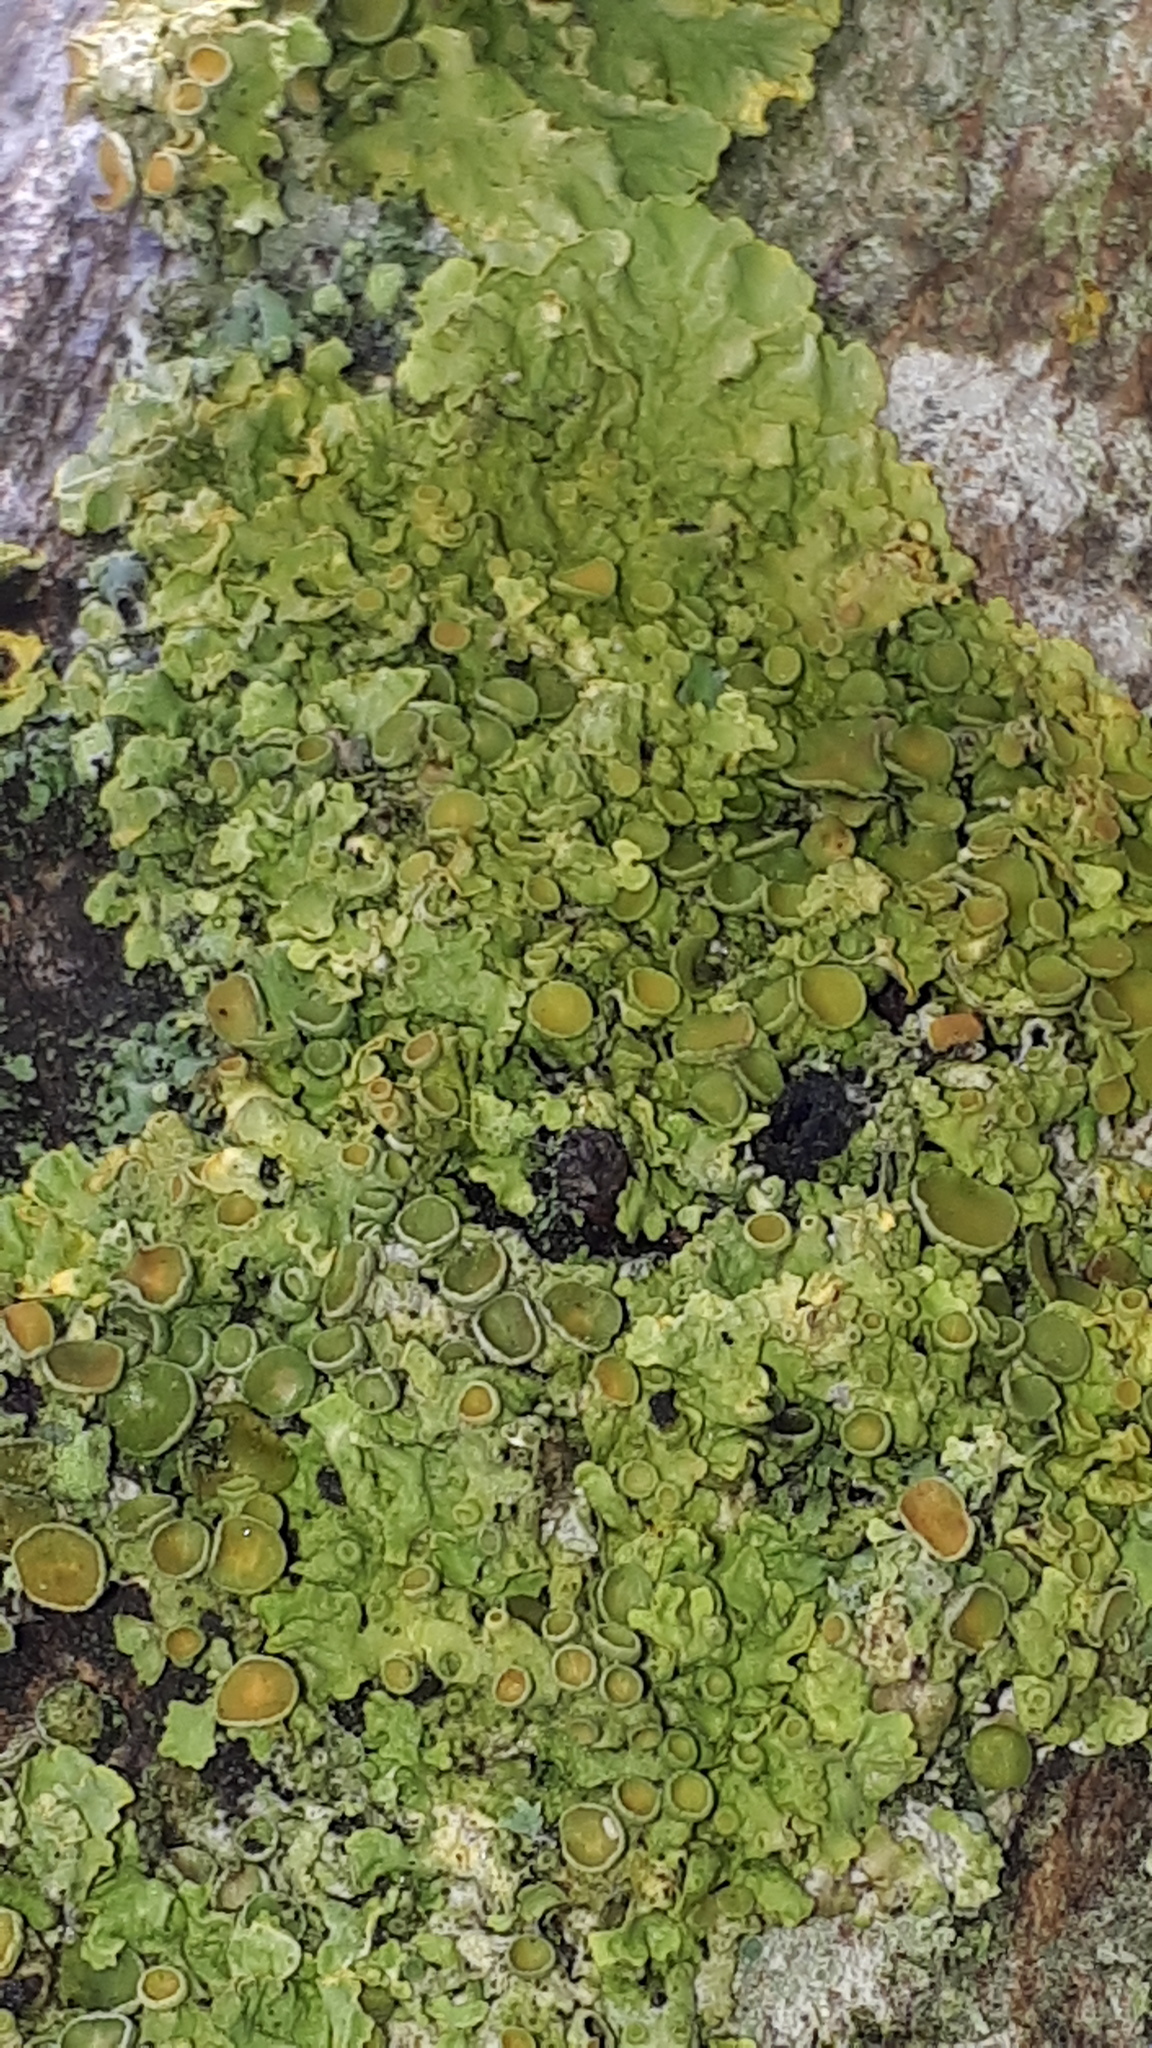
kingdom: Fungi
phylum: Ascomycota
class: Lecanoromycetes
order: Teloschistales
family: Teloschistaceae
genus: Xanthoria
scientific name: Xanthoria parietina
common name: Common orange lichen
